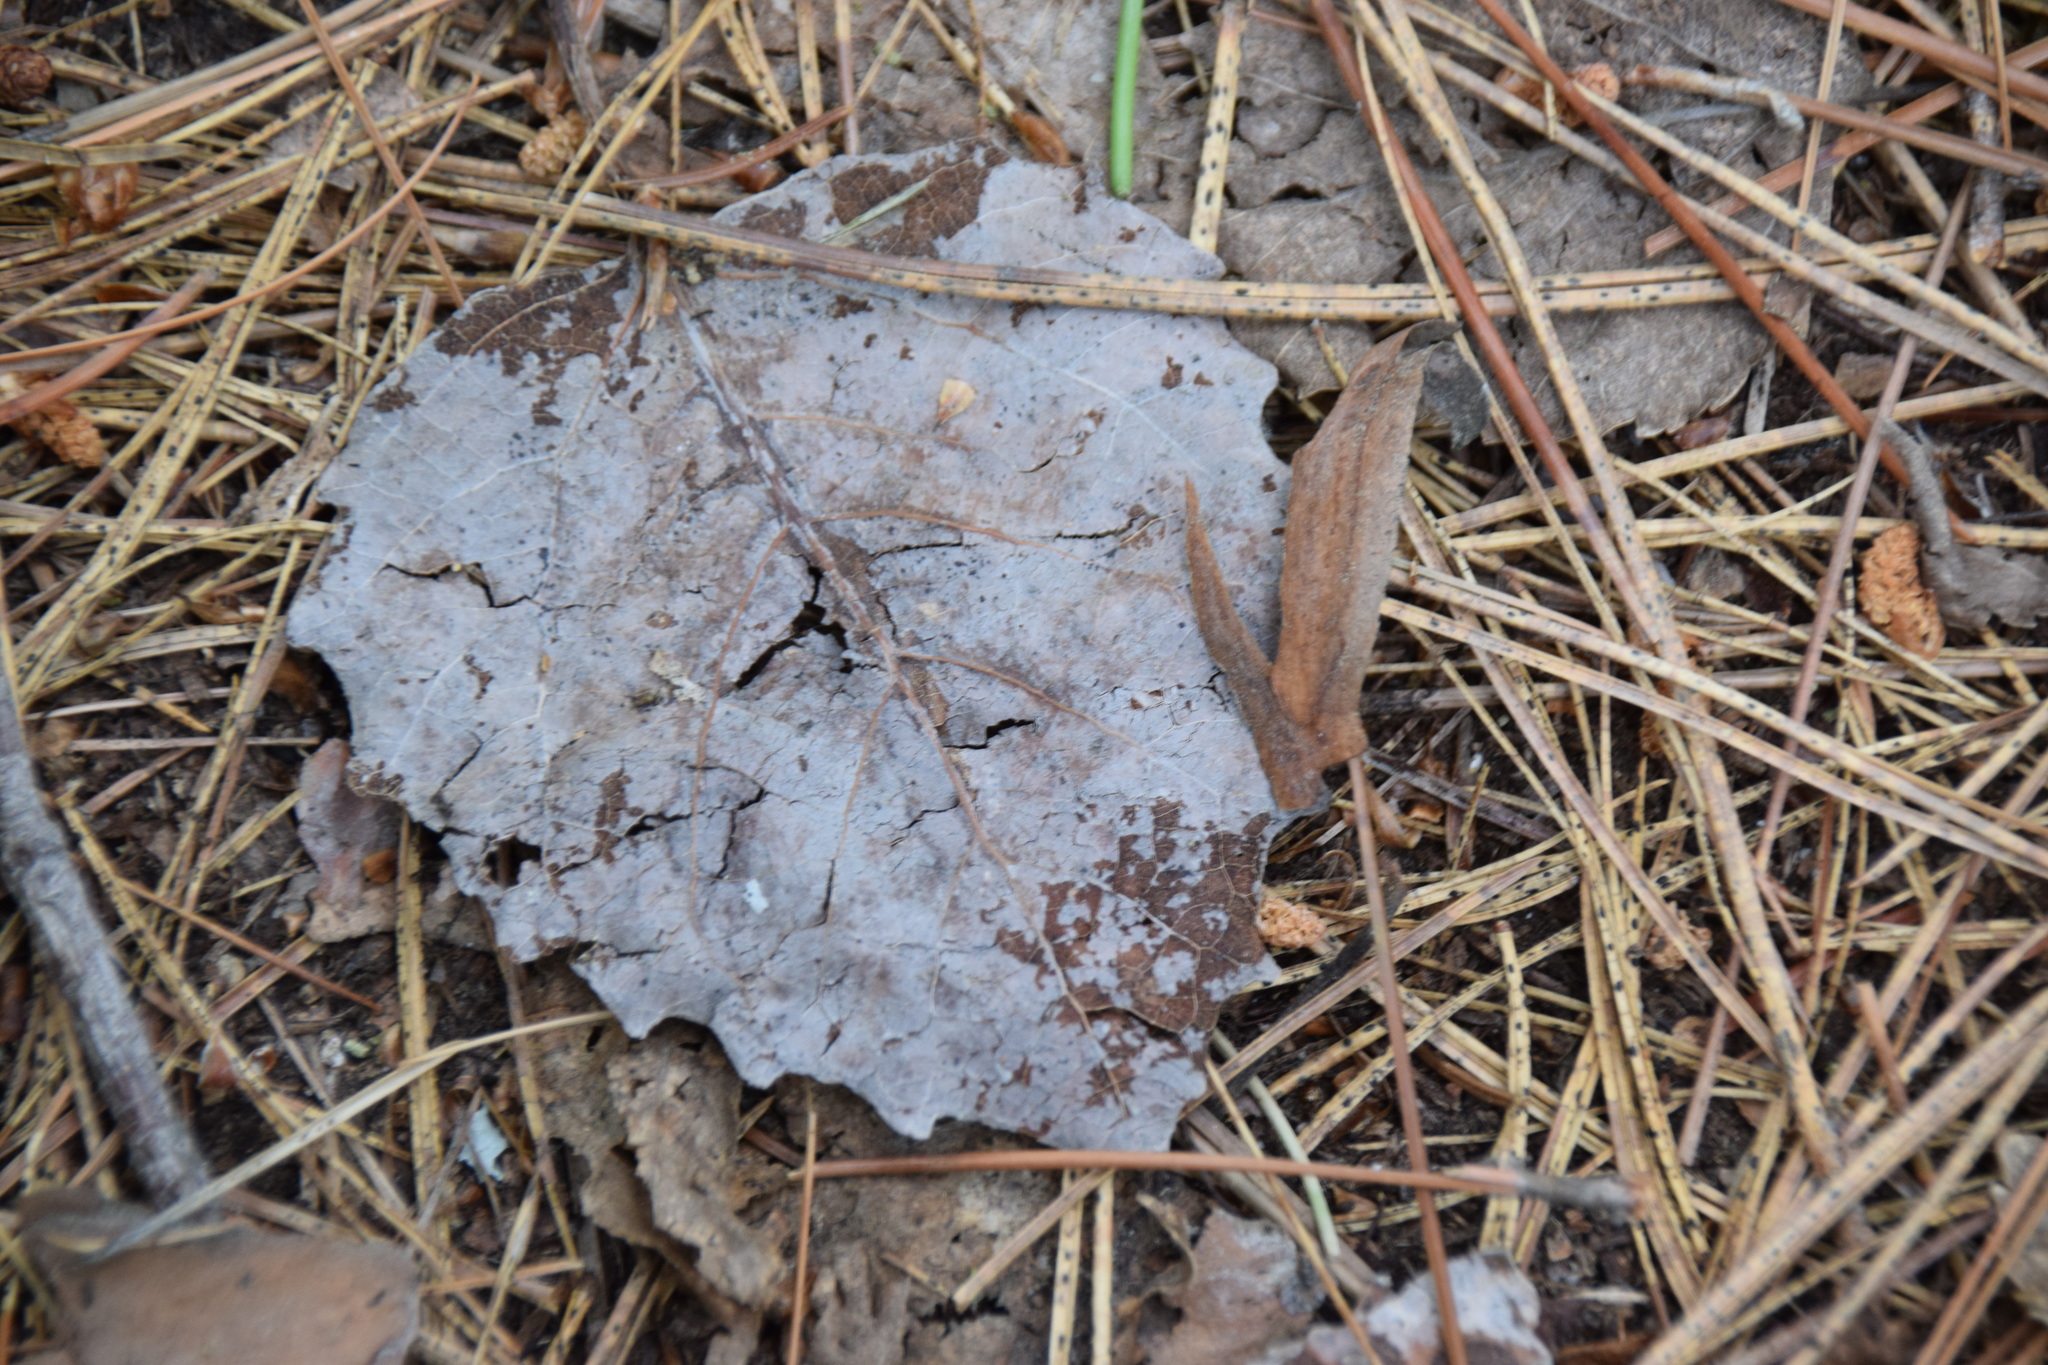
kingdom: Plantae
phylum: Tracheophyta
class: Magnoliopsida
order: Malpighiales
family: Salicaceae
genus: Populus
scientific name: Populus grandidentata
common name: Bigtooth aspen
